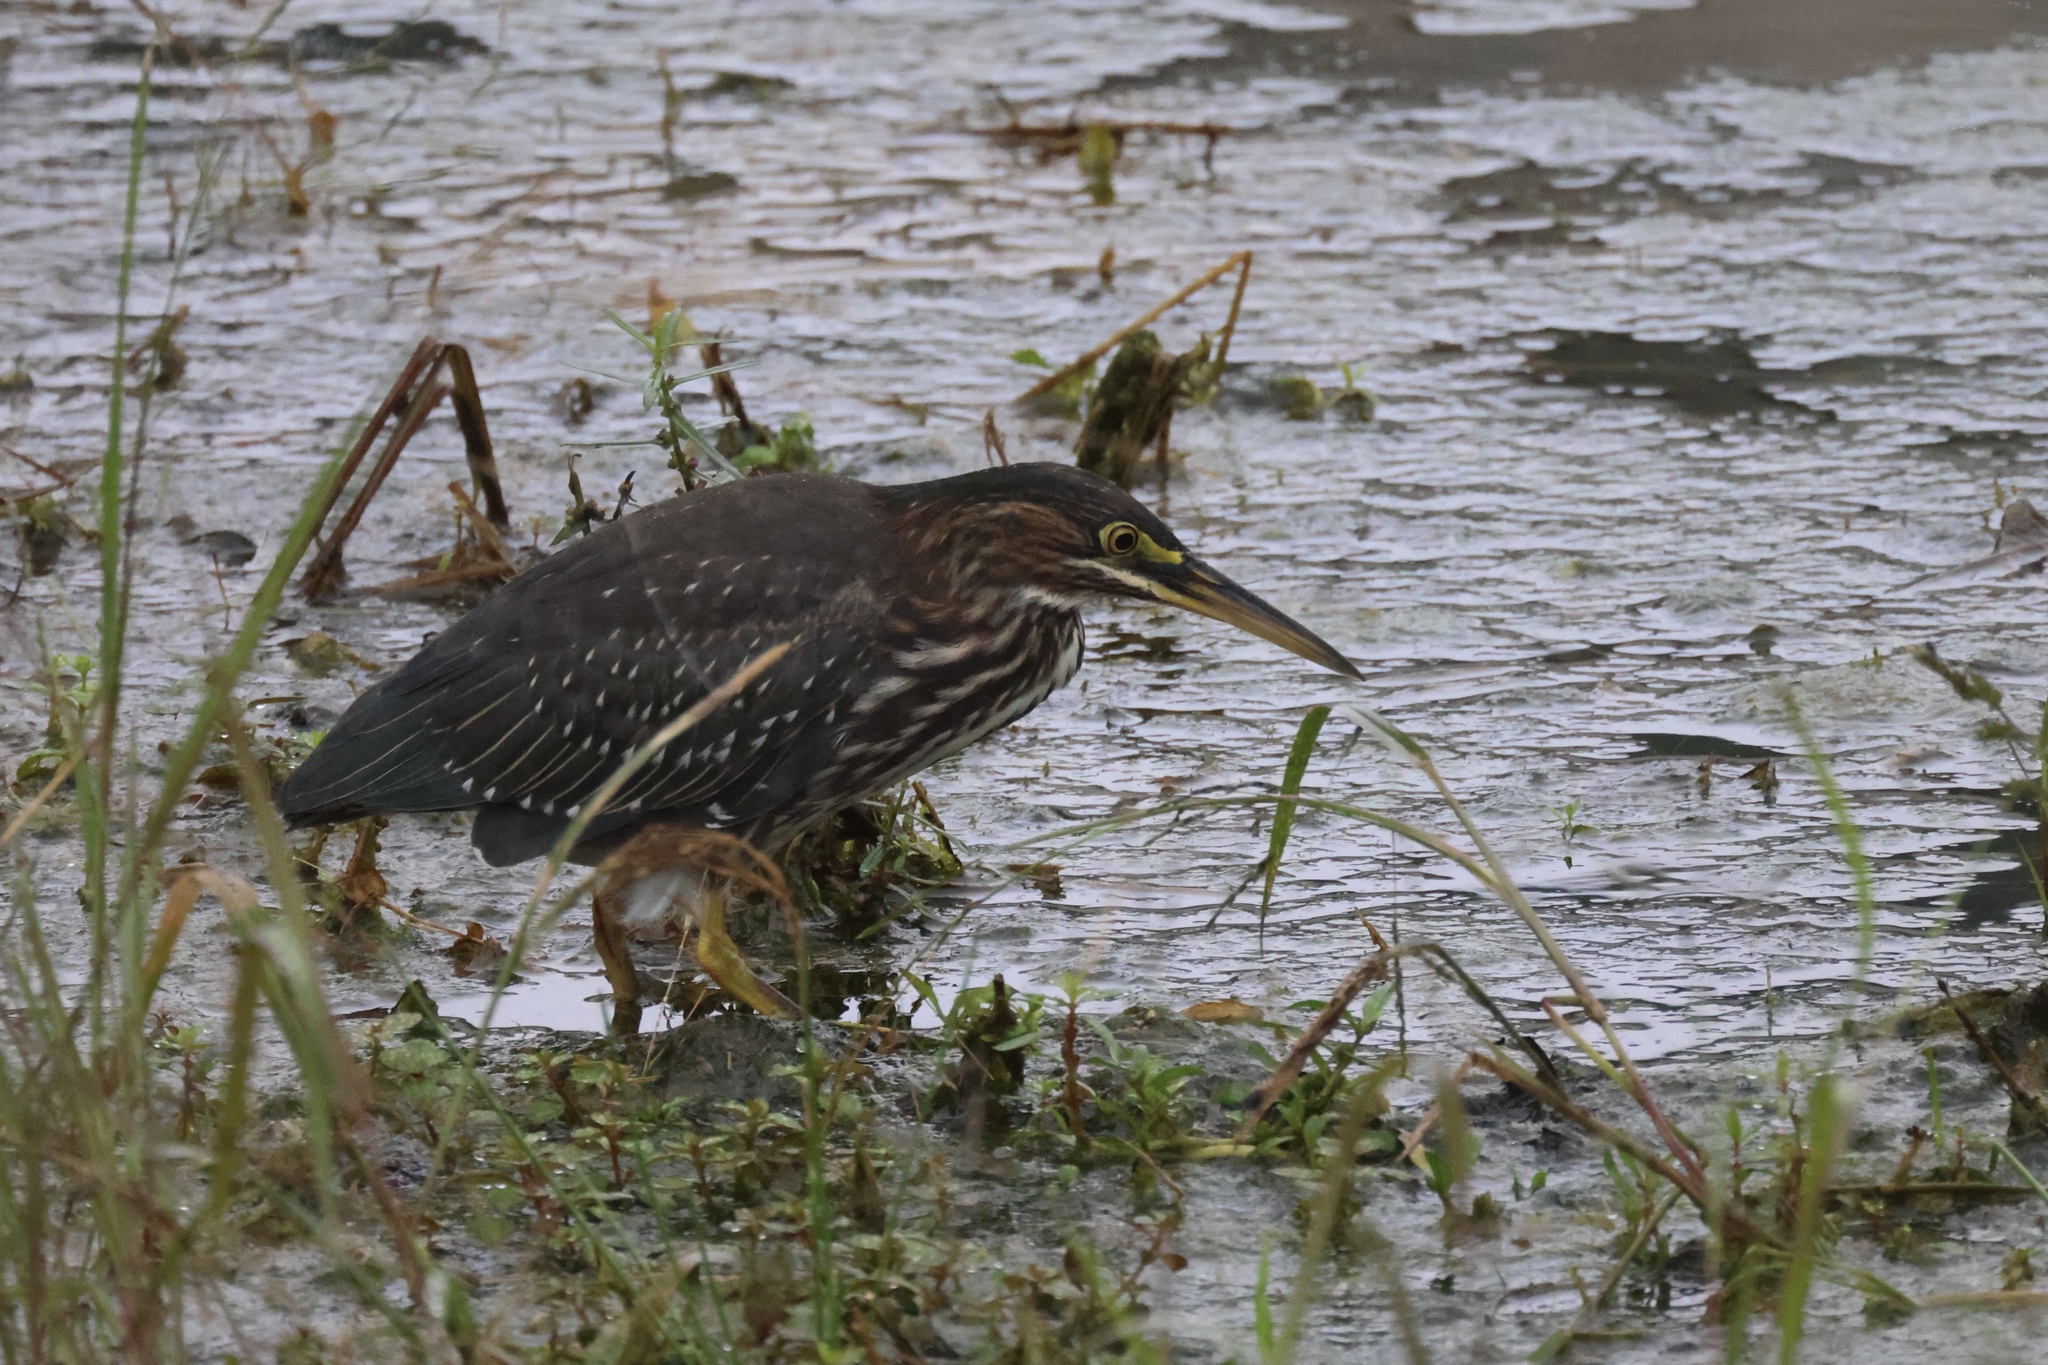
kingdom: Animalia
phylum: Chordata
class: Aves
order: Pelecaniformes
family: Ardeidae
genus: Butorides
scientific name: Butorides virescens
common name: Green heron
